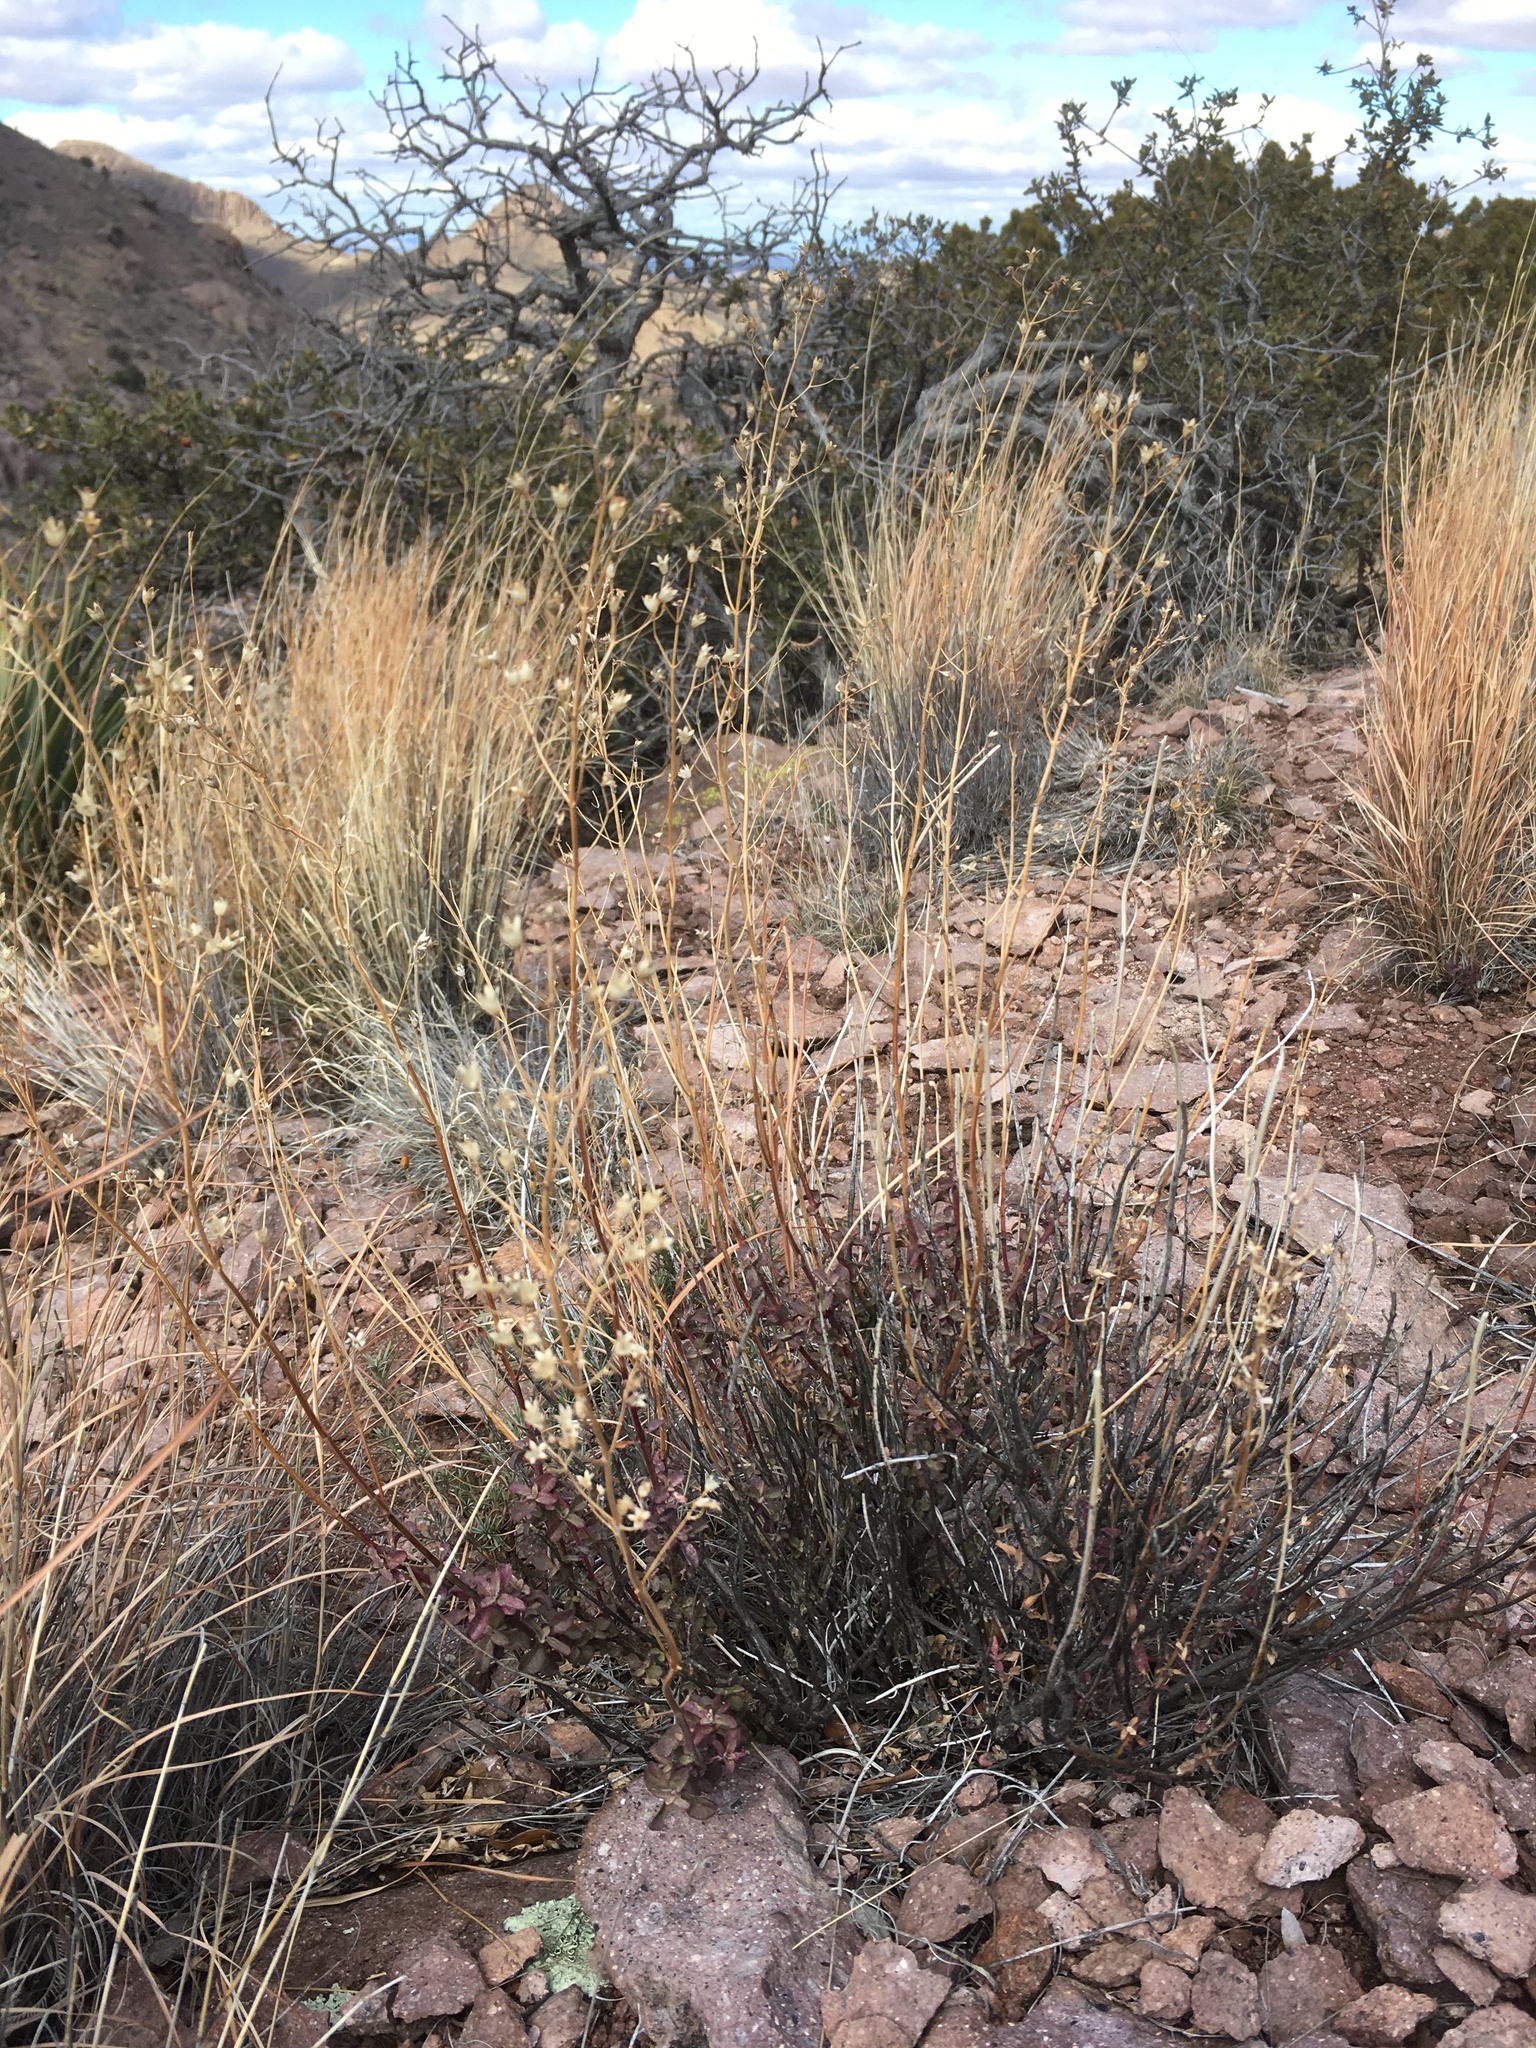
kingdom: Plantae
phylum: Tracheophyta
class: Magnoliopsida
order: Lamiales
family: Lamiaceae
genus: Trichostema
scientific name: Trichostema arizonicum
